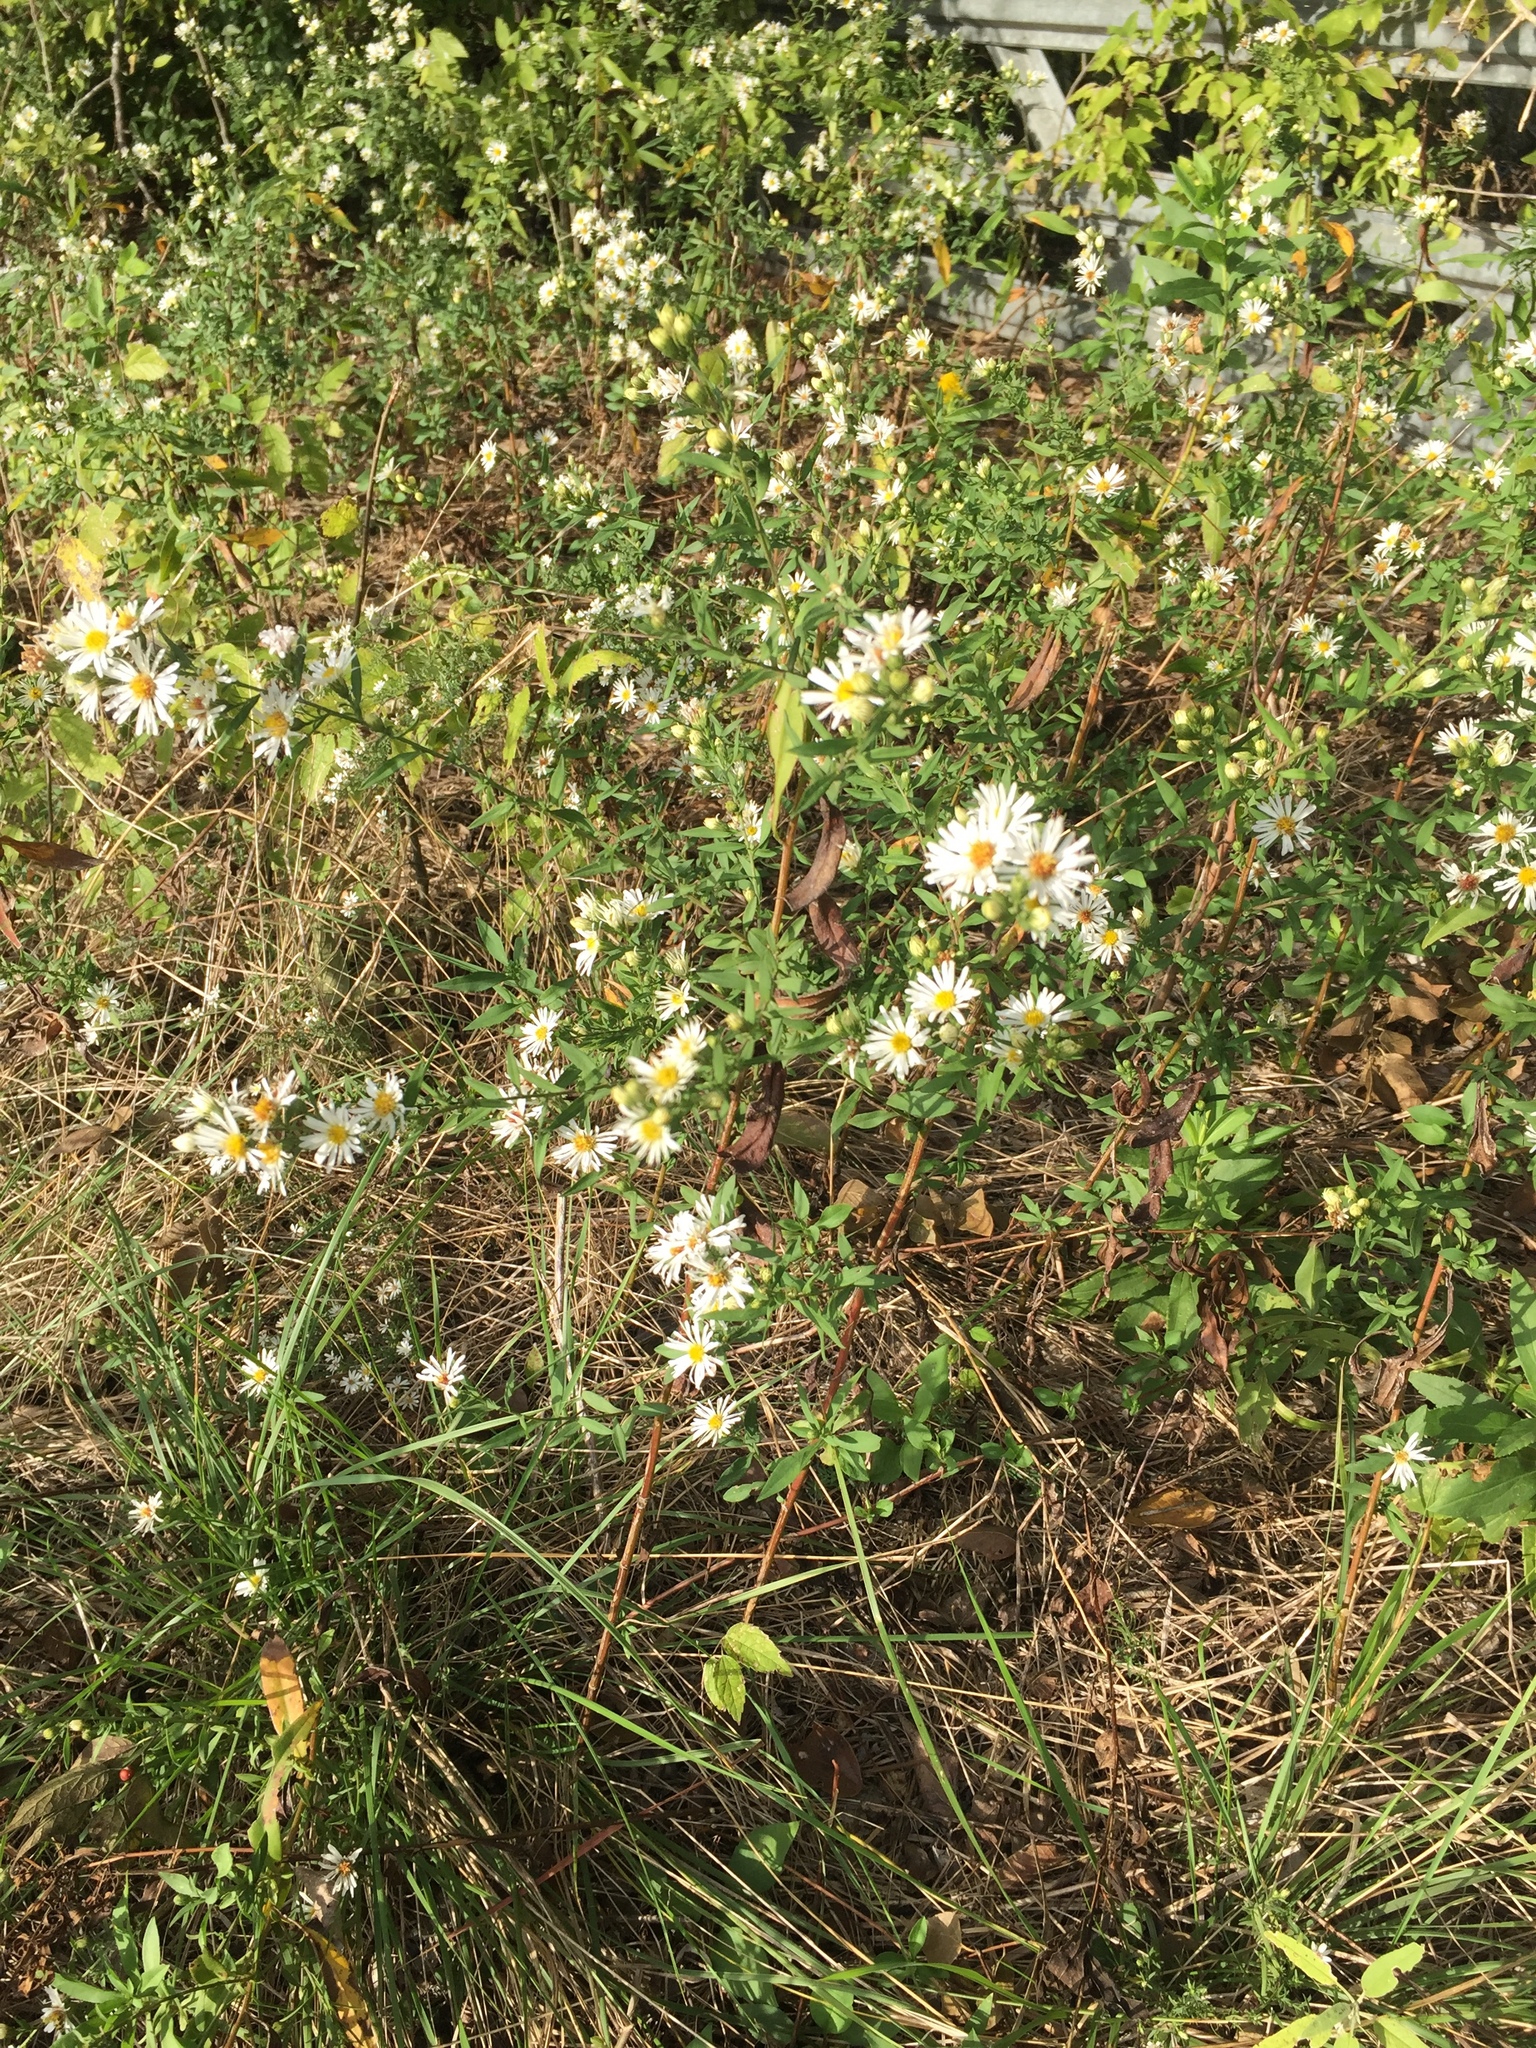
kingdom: Plantae
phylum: Tracheophyta
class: Magnoliopsida
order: Asterales
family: Asteraceae
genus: Symphyotrichum
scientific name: Symphyotrichum lanceolatum
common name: Panicled aster
